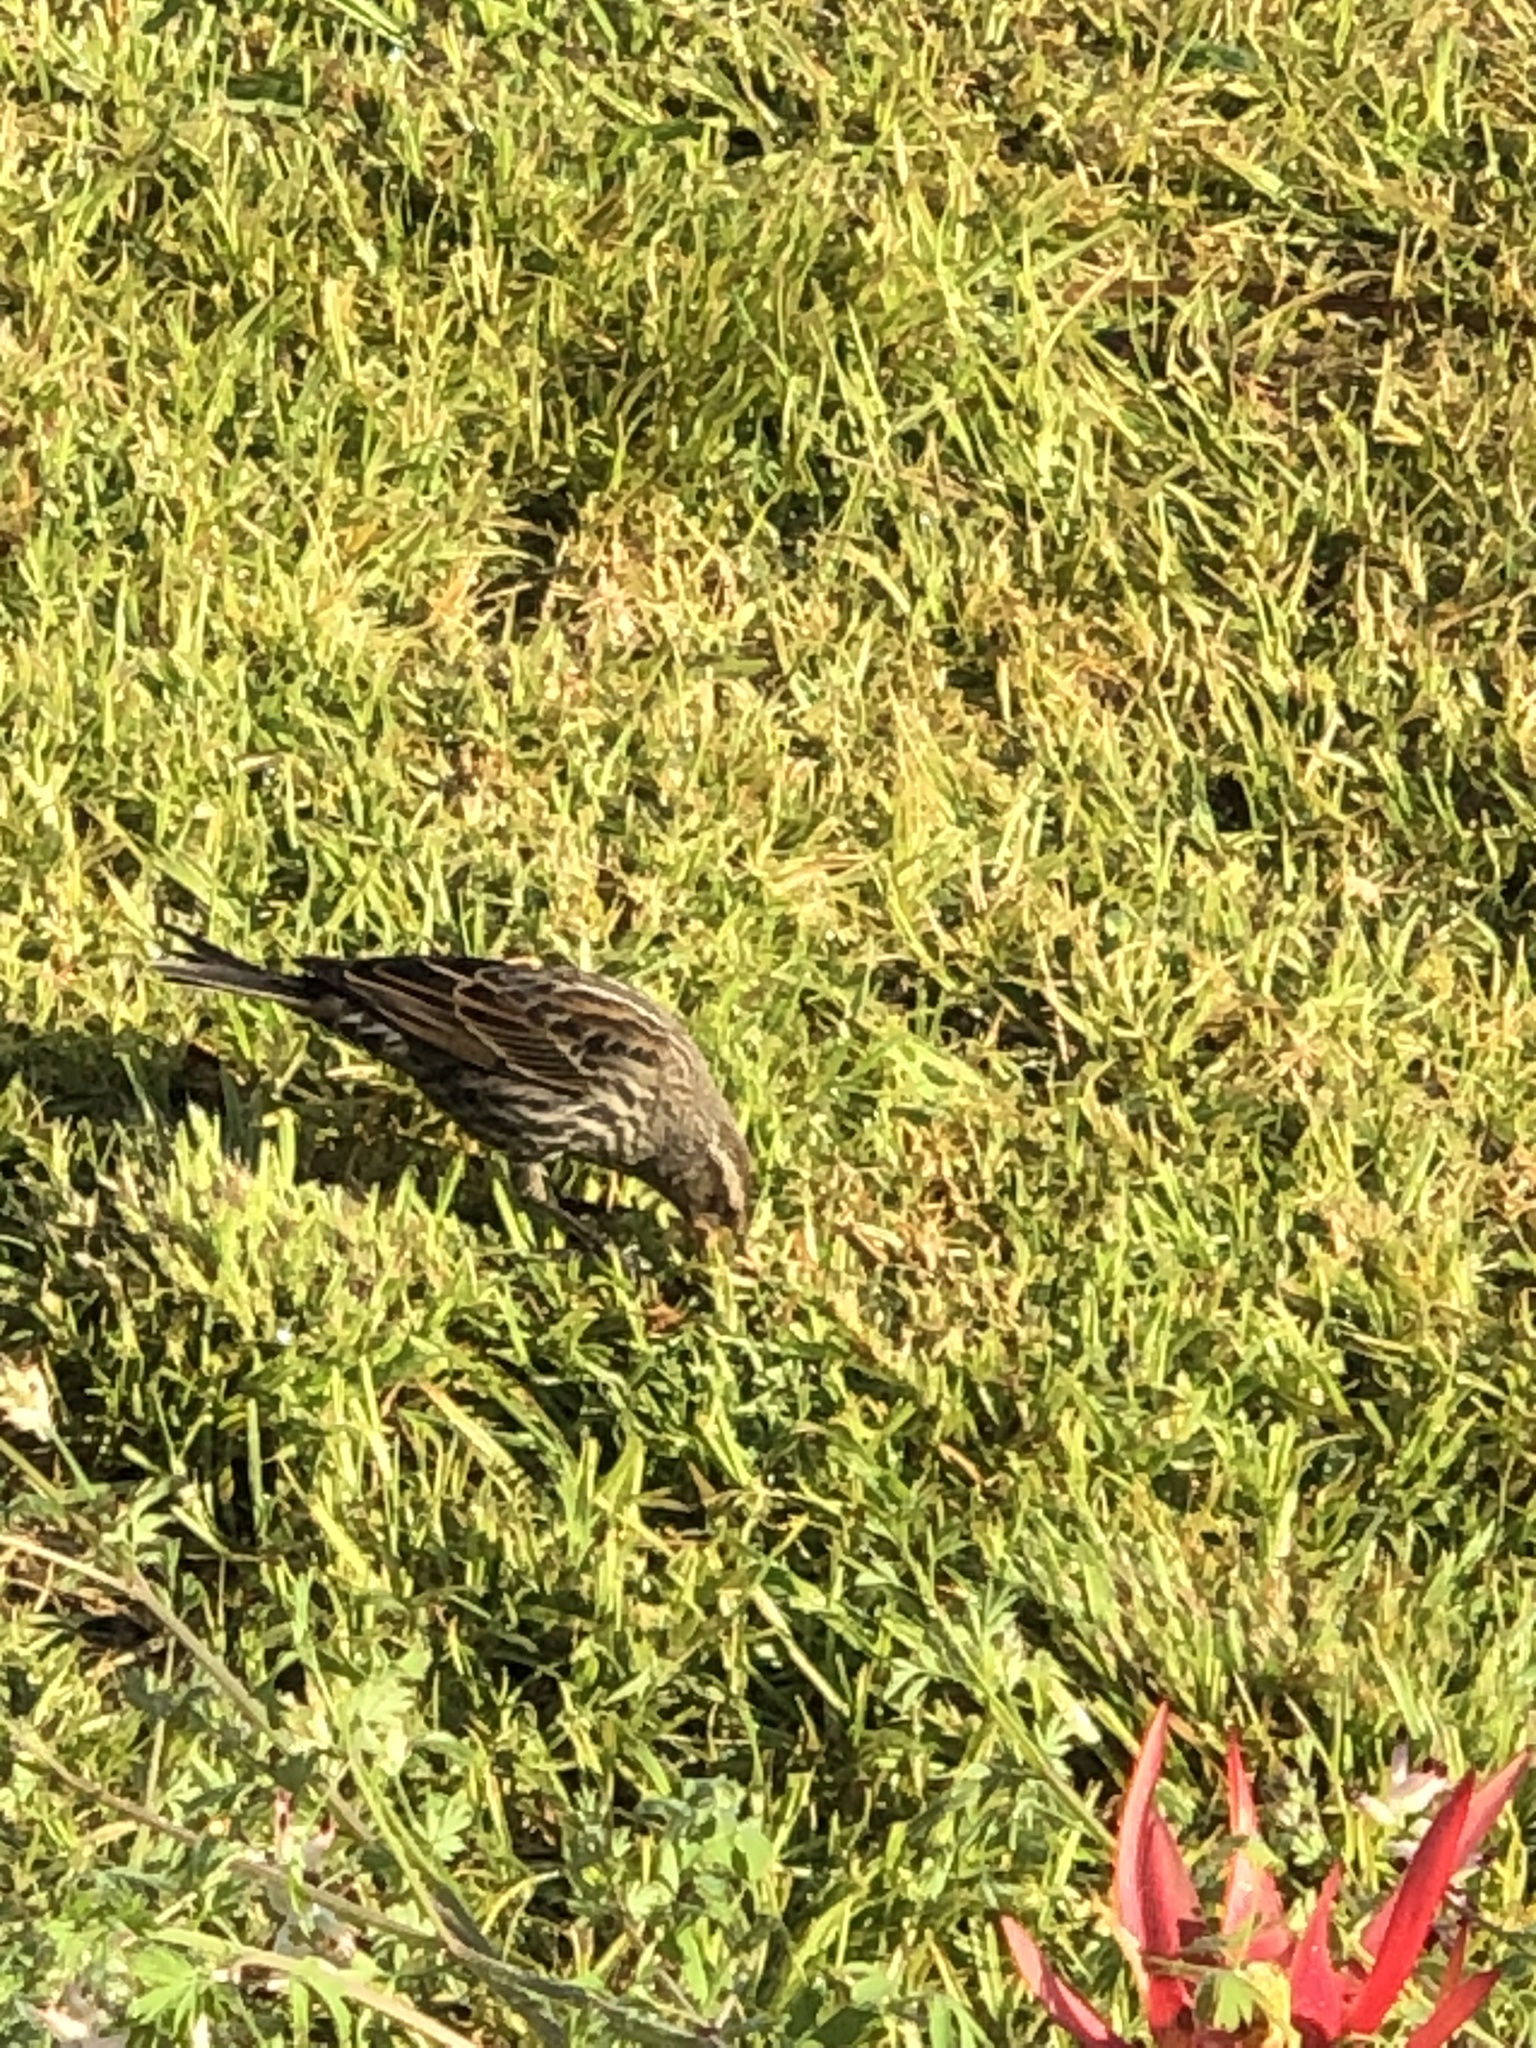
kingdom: Animalia
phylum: Chordata
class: Aves
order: Passeriformes
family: Icteridae
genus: Agelaius
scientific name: Agelaius phoeniceus
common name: Red-winged blackbird
